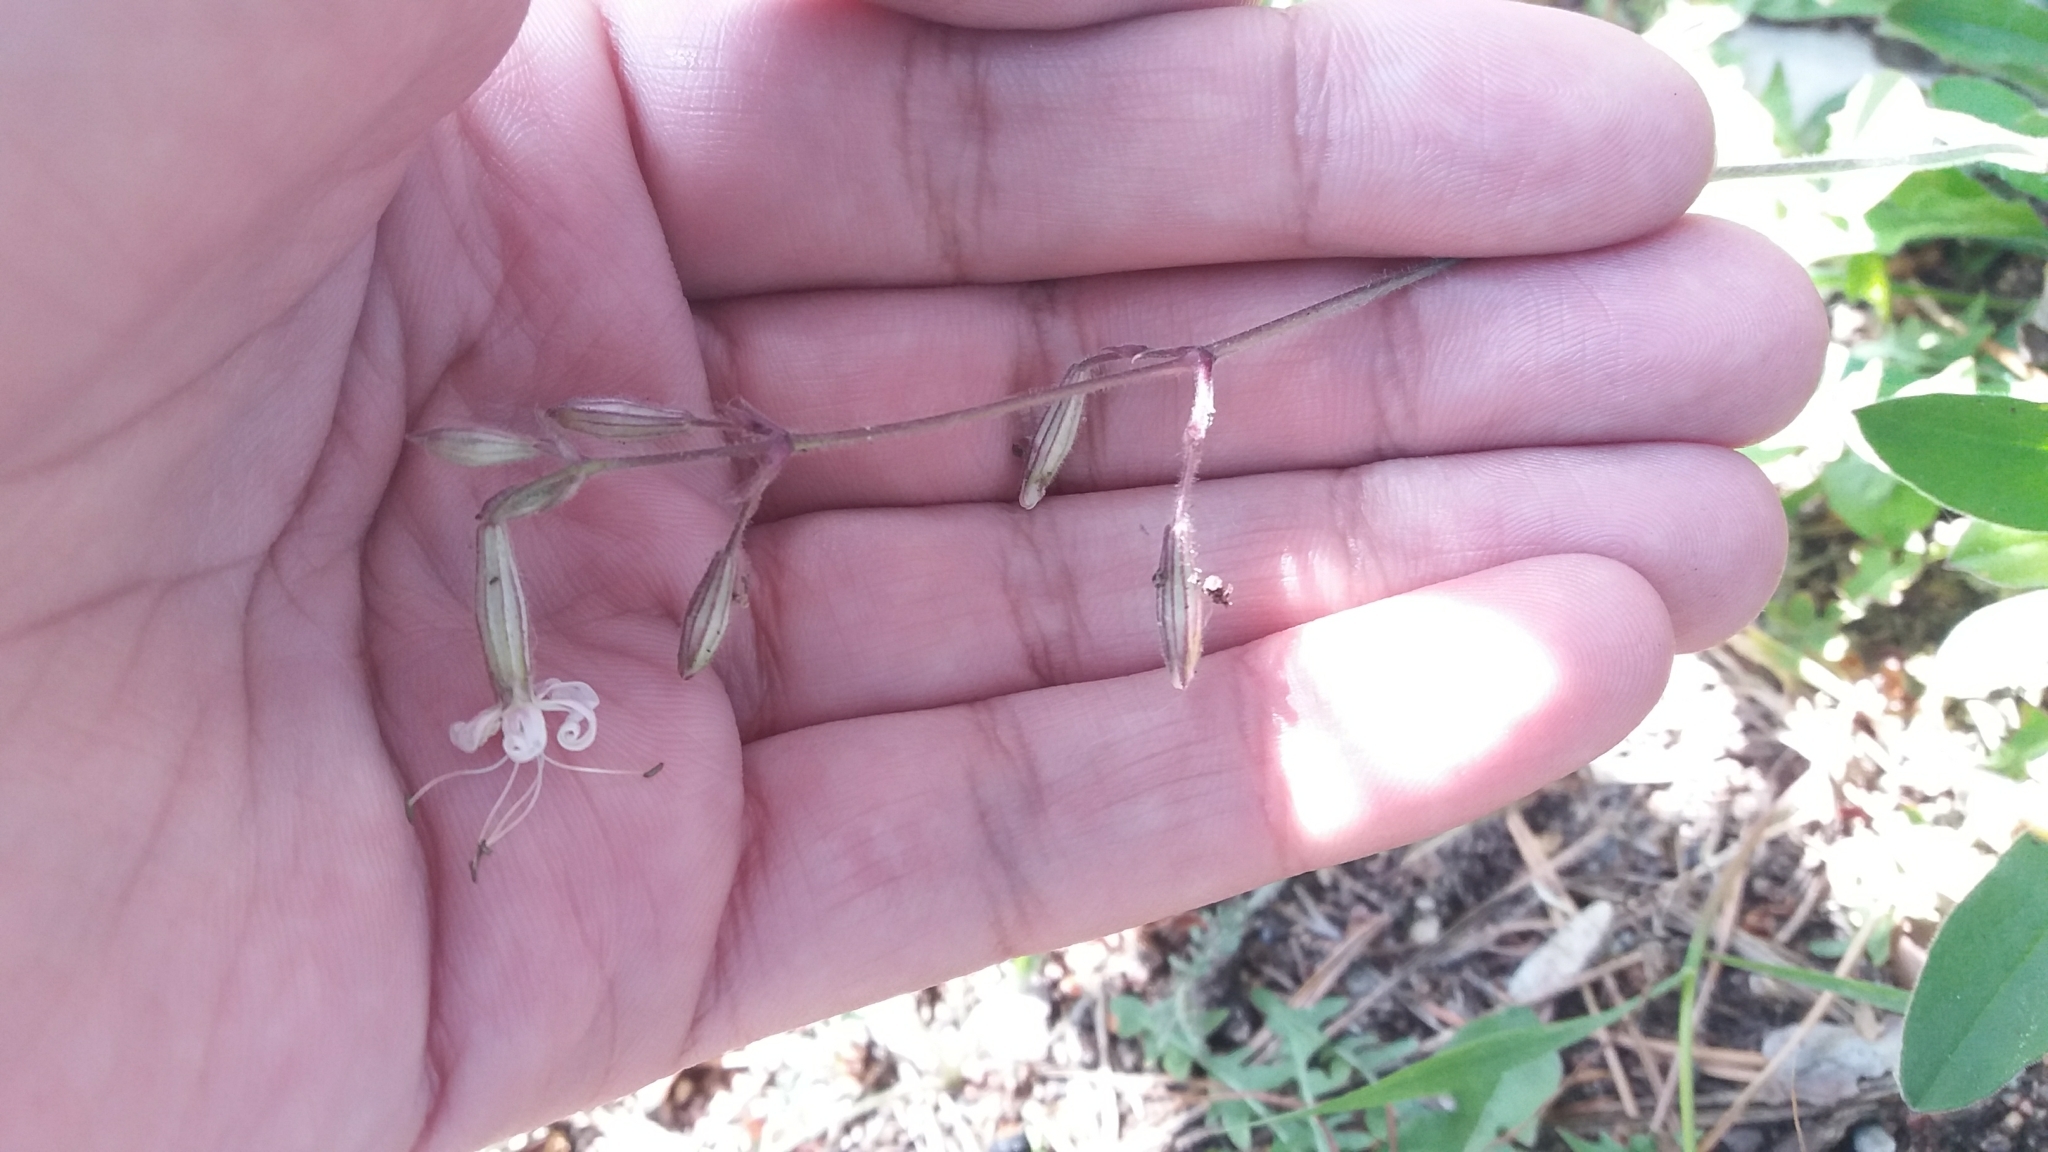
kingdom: Plantae
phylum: Tracheophyta
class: Magnoliopsida
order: Caryophyllales
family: Caryophyllaceae
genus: Silene
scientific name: Silene nutans
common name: Nottingham catchfly
